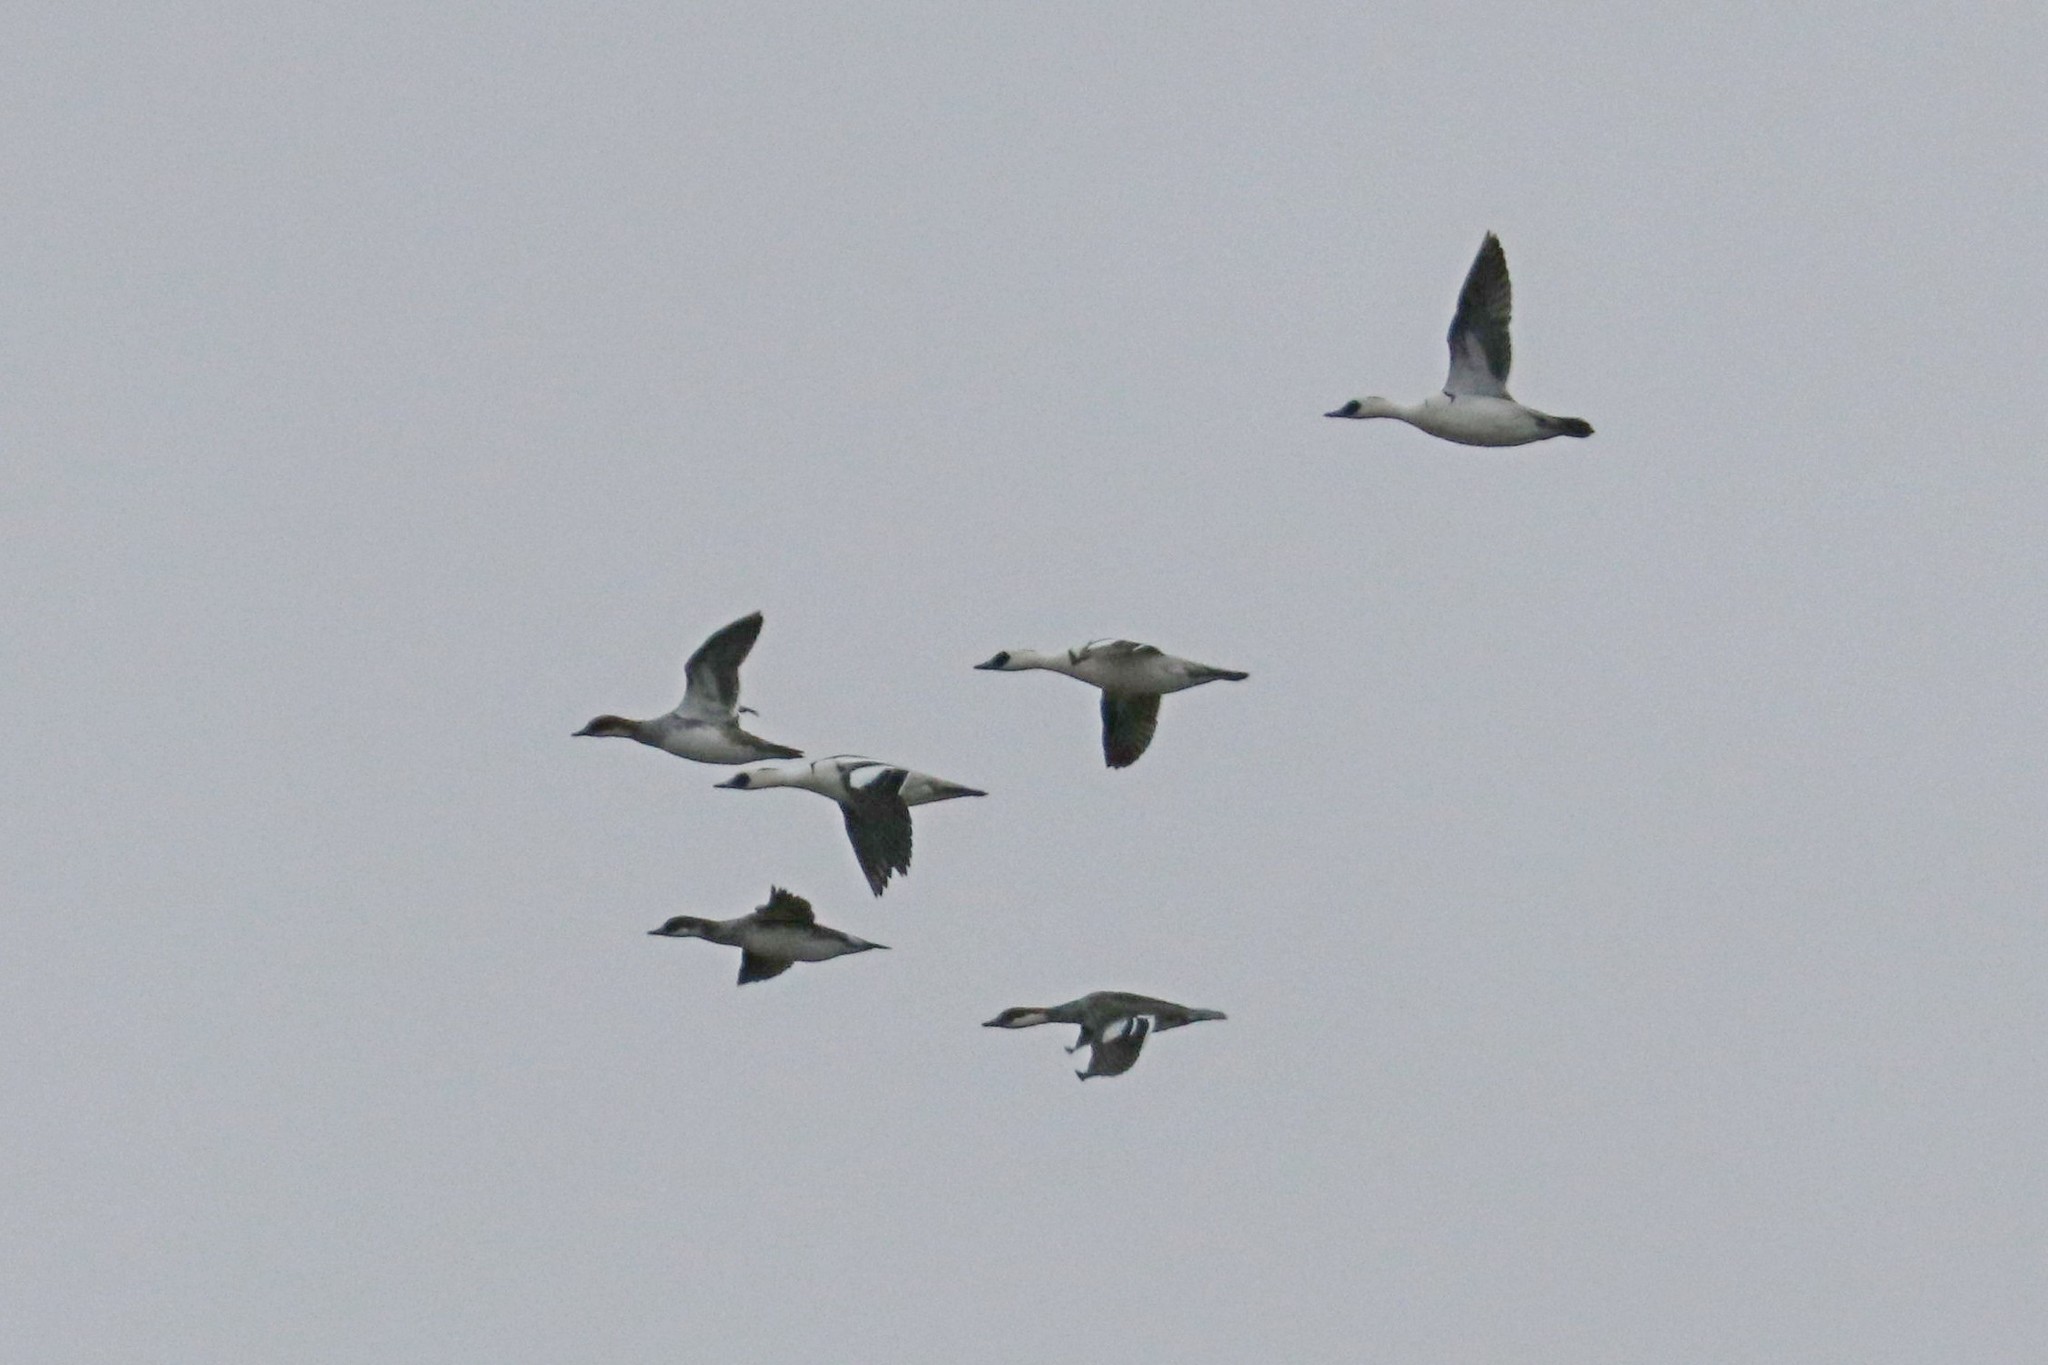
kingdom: Animalia
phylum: Chordata
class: Aves
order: Anseriformes
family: Anatidae
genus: Mergellus
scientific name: Mergellus albellus
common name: Smew
